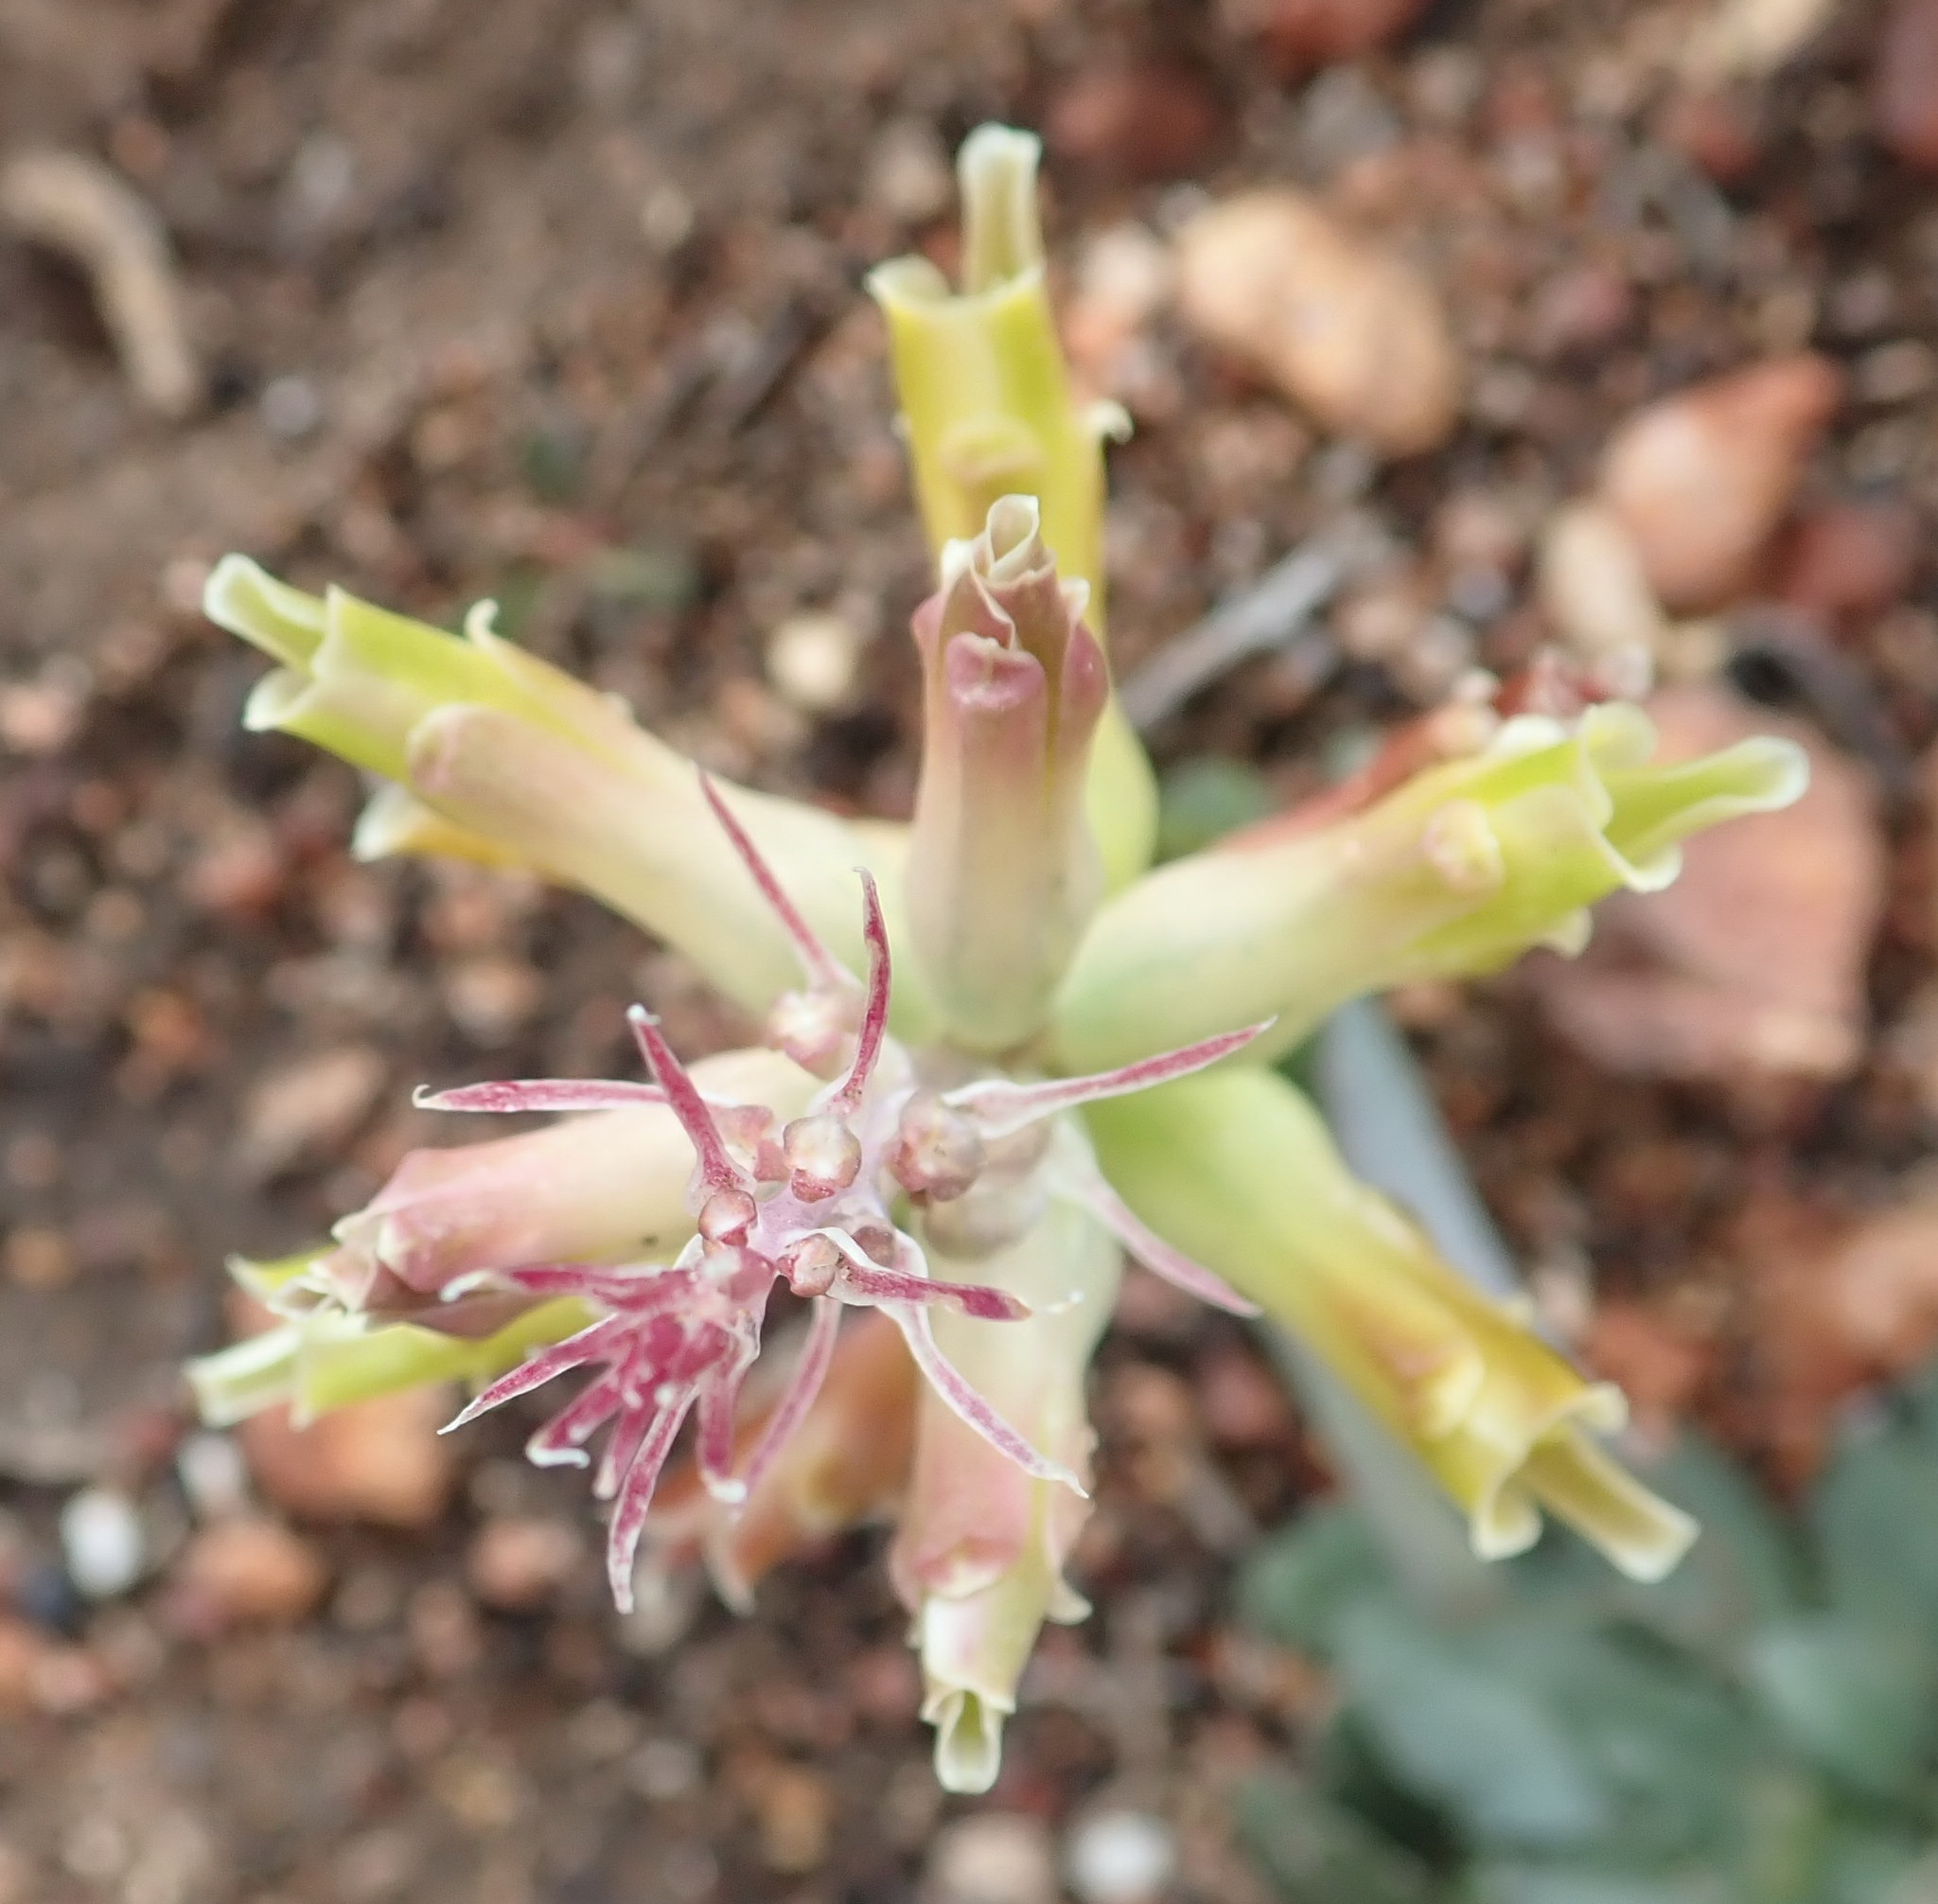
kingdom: Plantae
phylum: Tracheophyta
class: Liliopsida
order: Asparagales
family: Asparagaceae
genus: Lachenalia
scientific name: Lachenalia orchioides
